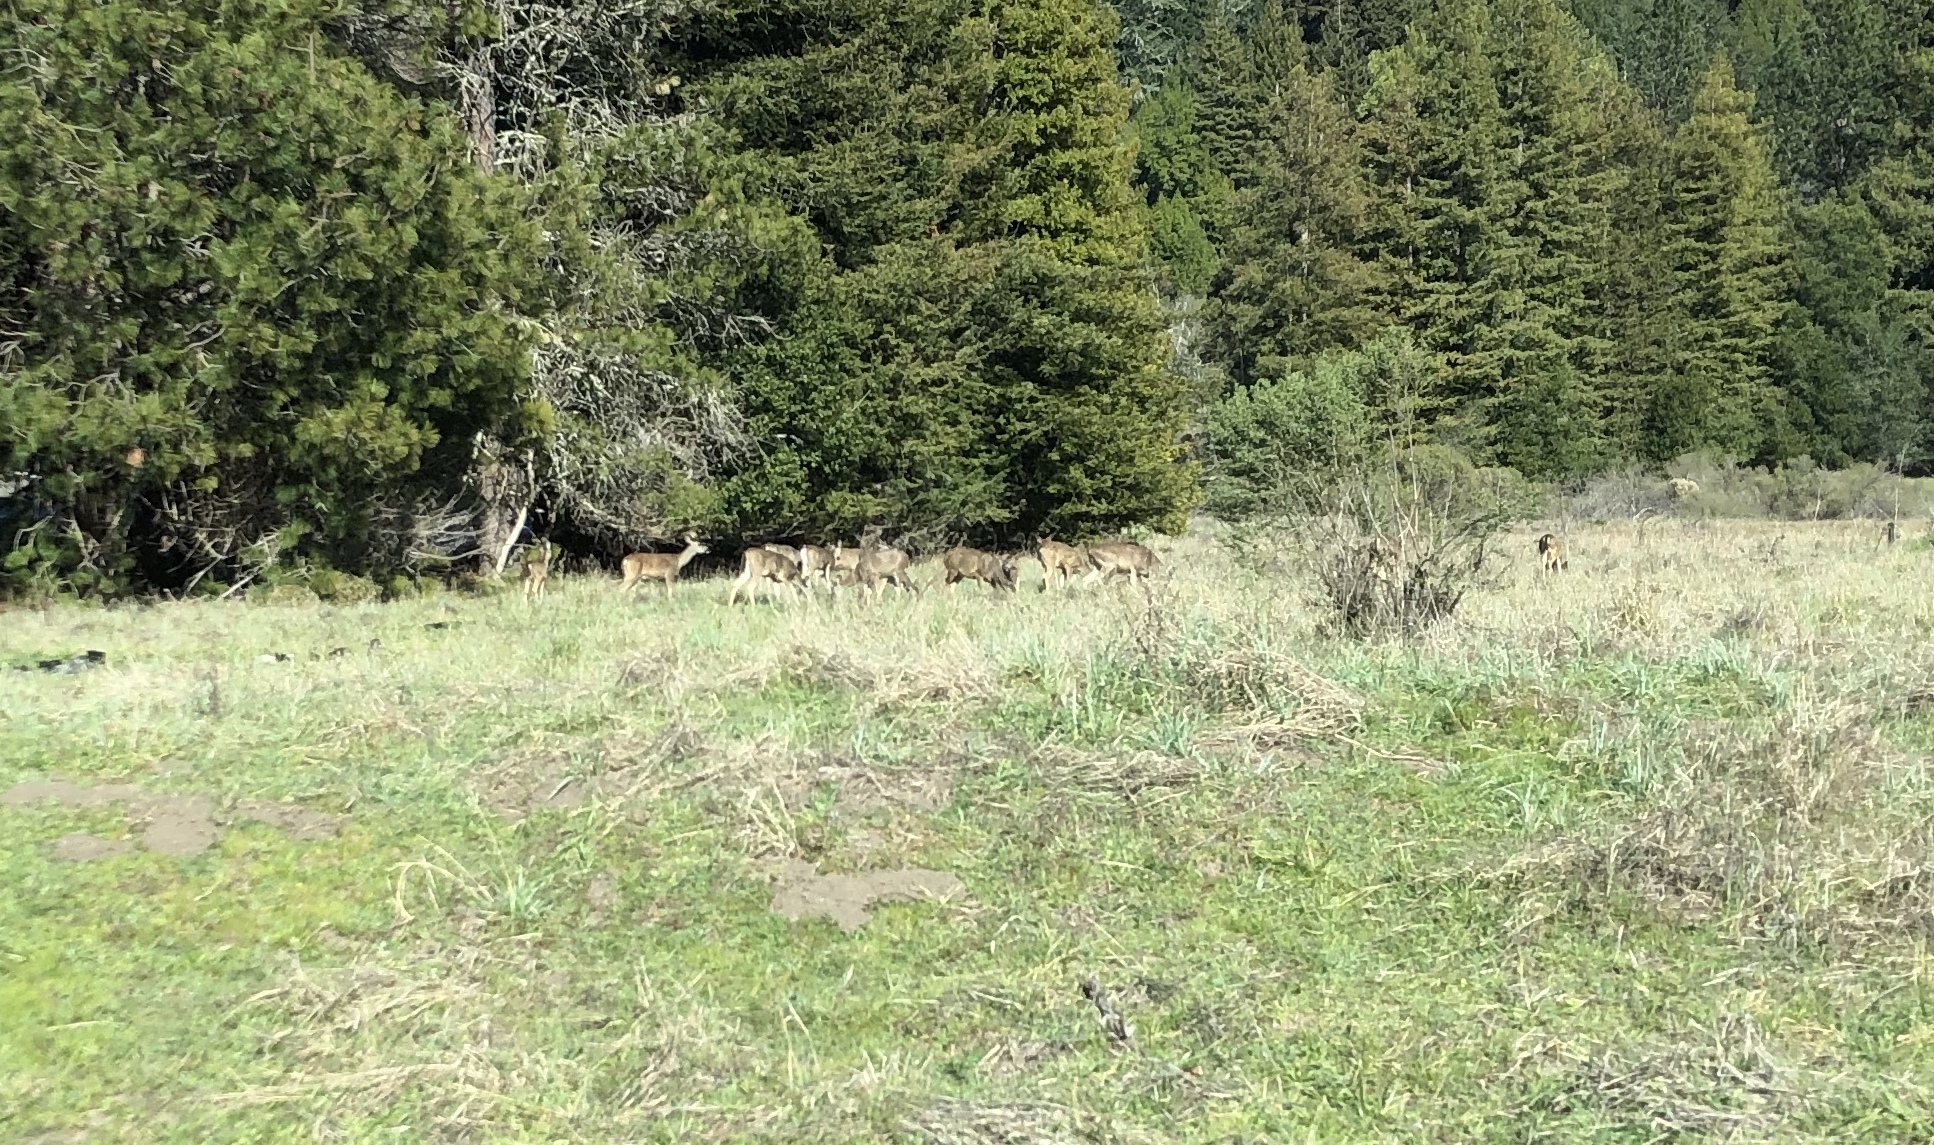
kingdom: Animalia
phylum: Chordata
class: Mammalia
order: Artiodactyla
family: Cervidae
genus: Odocoileus
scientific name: Odocoileus hemionus
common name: Mule deer
